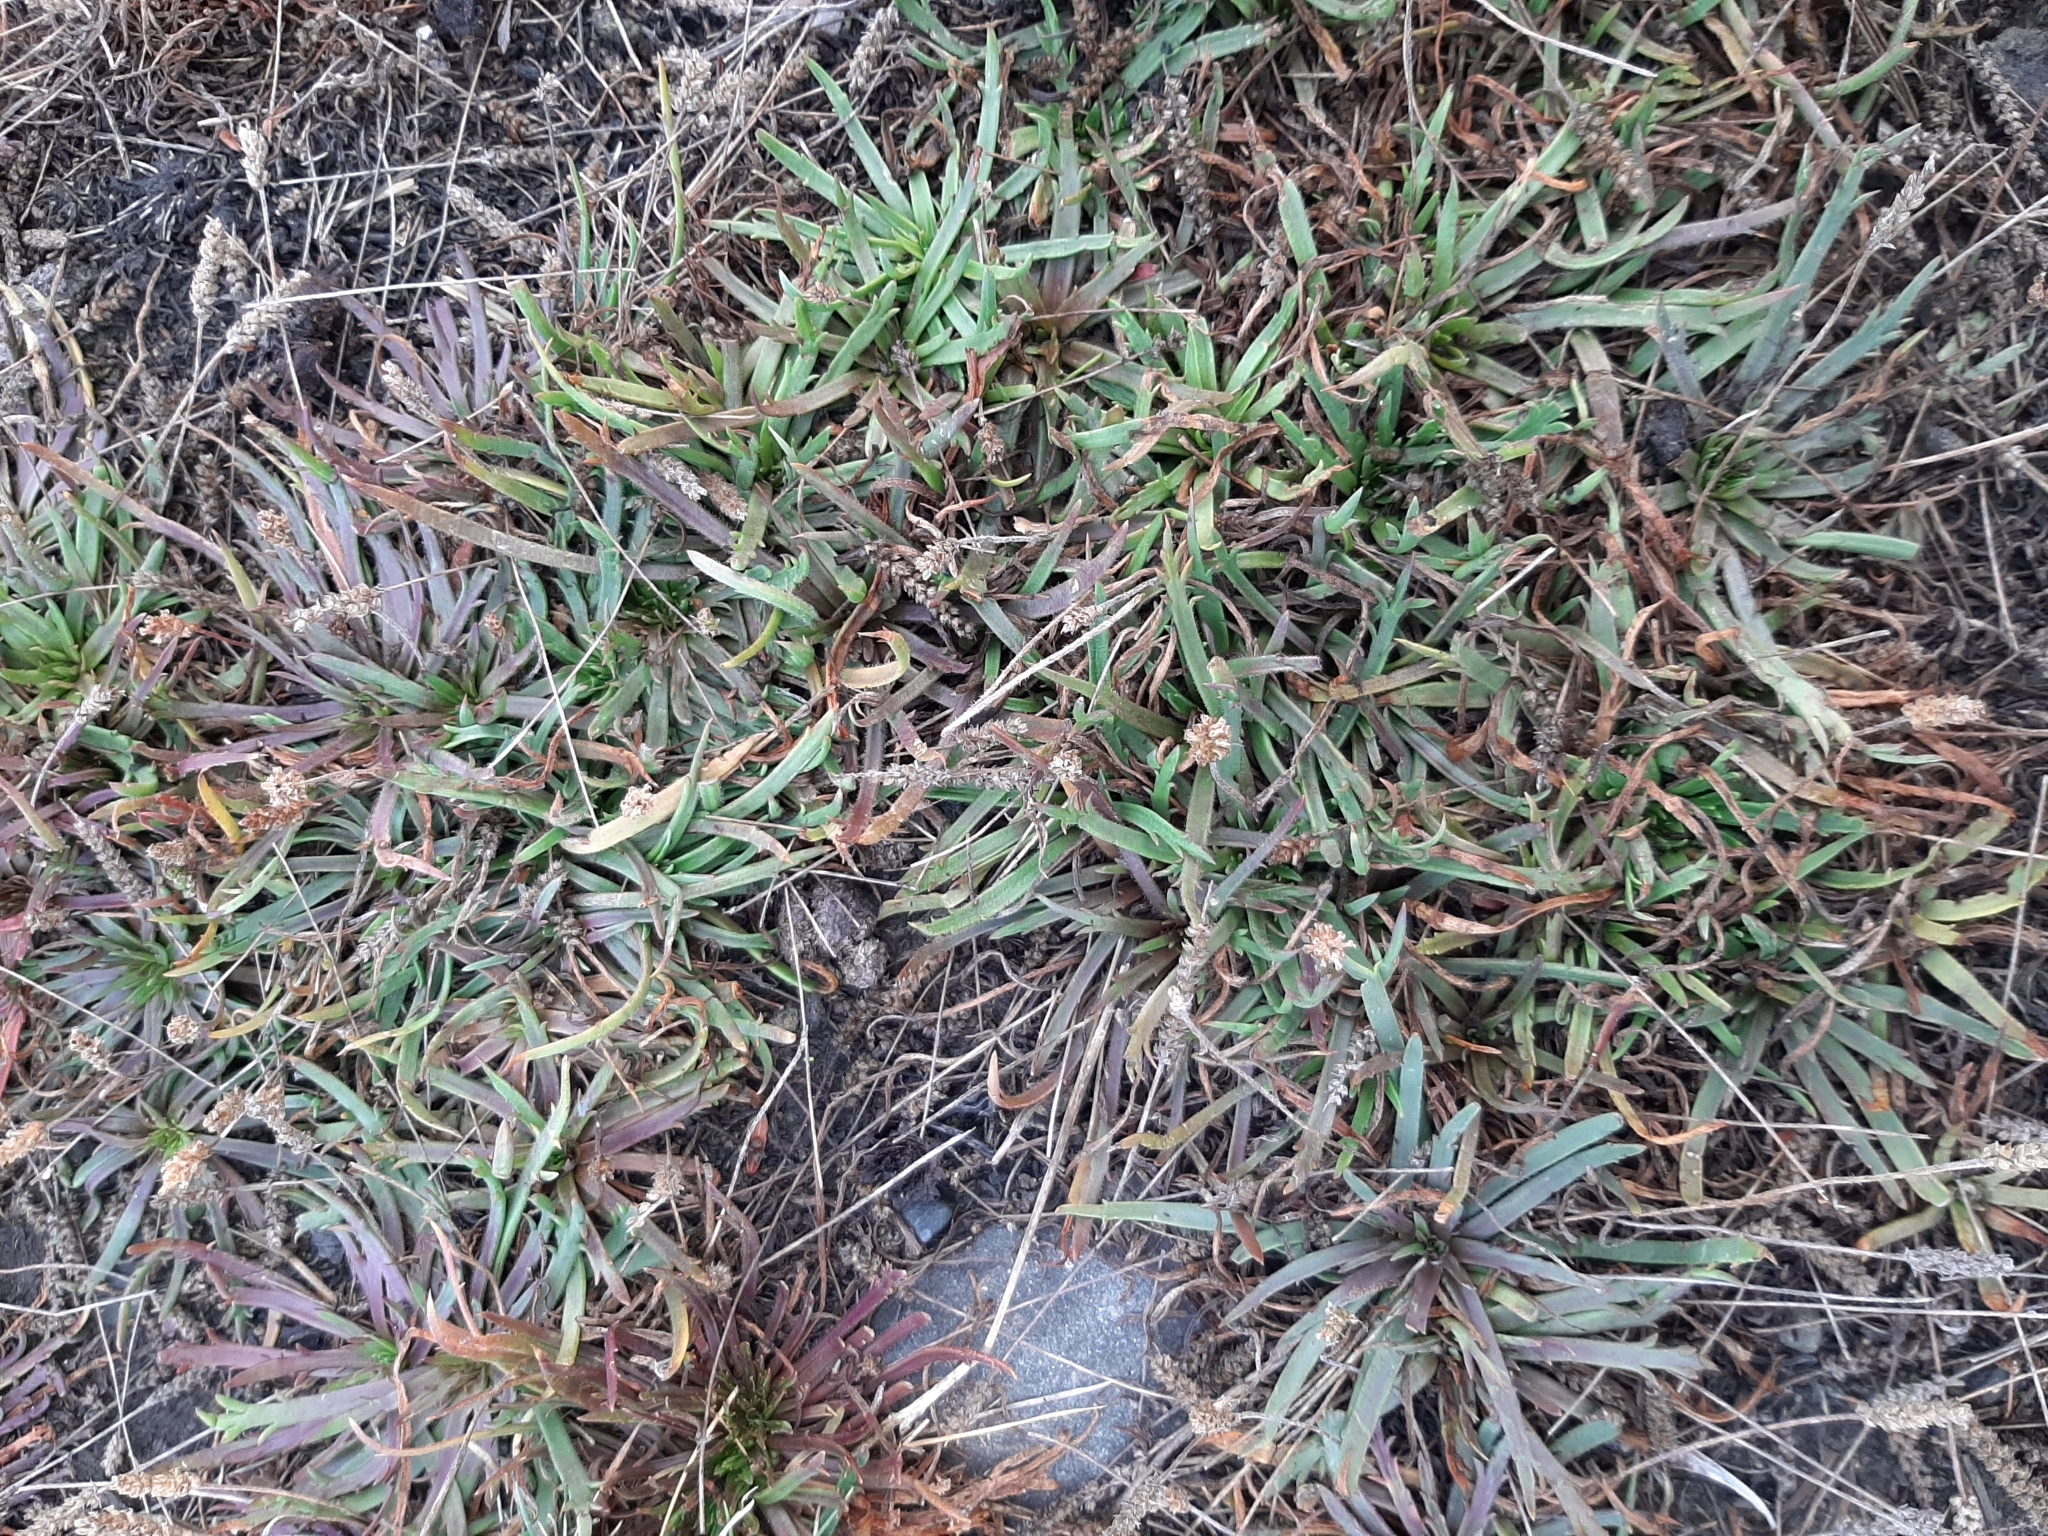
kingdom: Plantae
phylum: Tracheophyta
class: Magnoliopsida
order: Lamiales
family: Plantaginaceae
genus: Plantago
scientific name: Plantago coronopus
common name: Buck's-horn plantain
